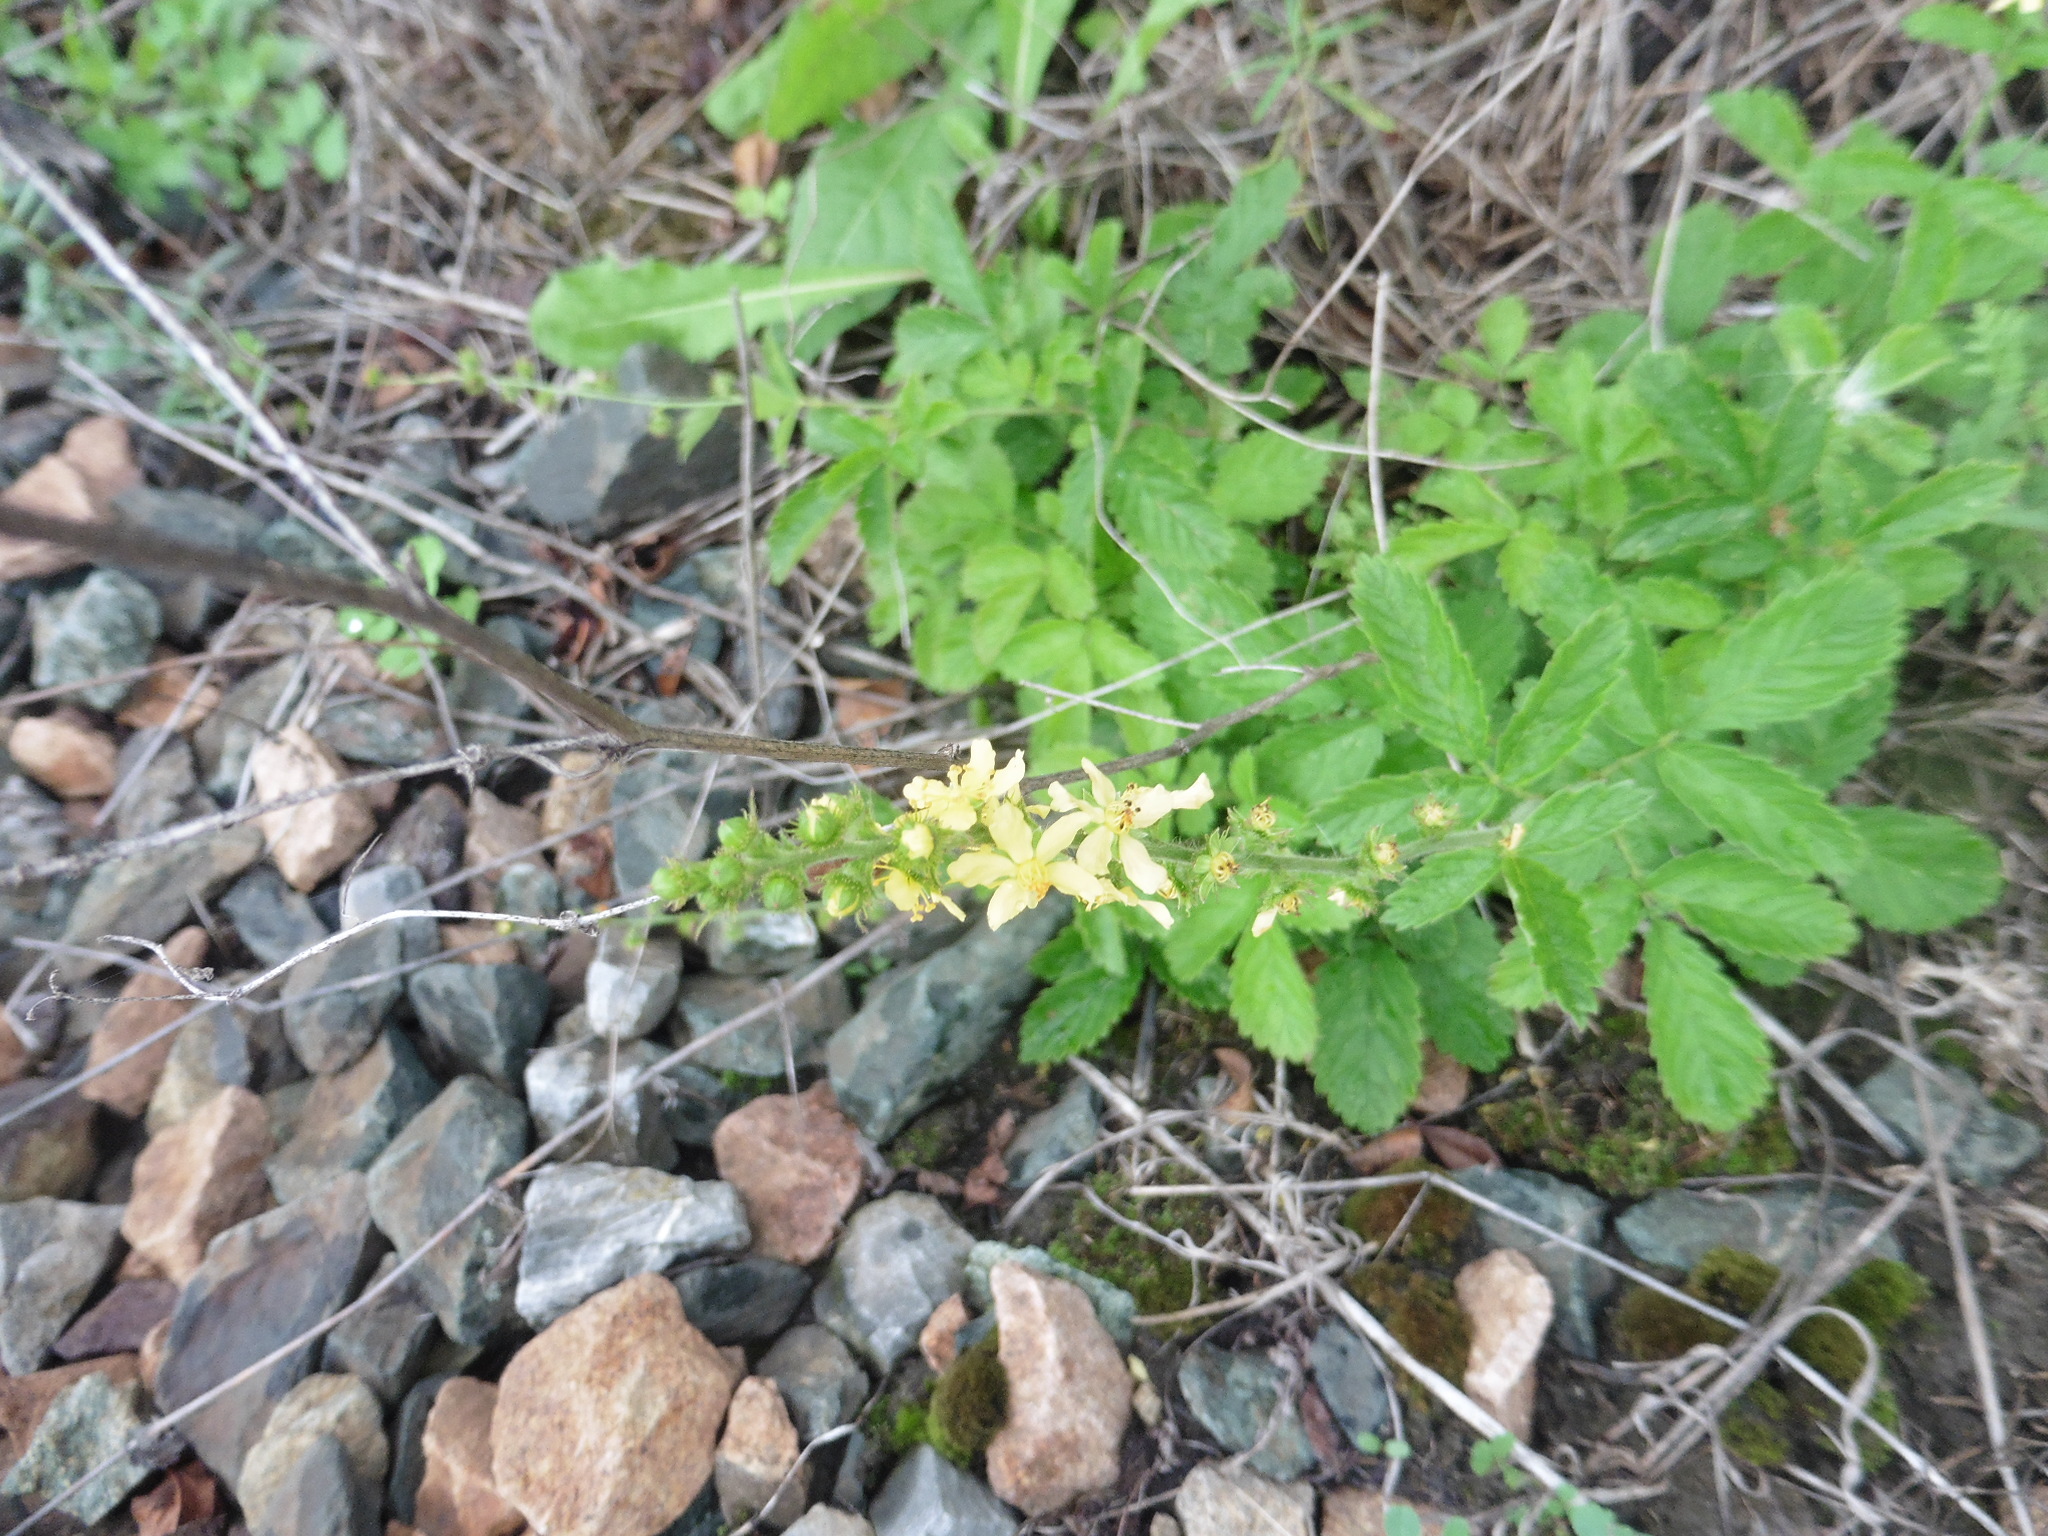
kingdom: Plantae
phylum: Tracheophyta
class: Magnoliopsida
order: Rosales
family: Rosaceae
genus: Agrimonia
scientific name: Agrimonia eupatoria
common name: Agrimony
